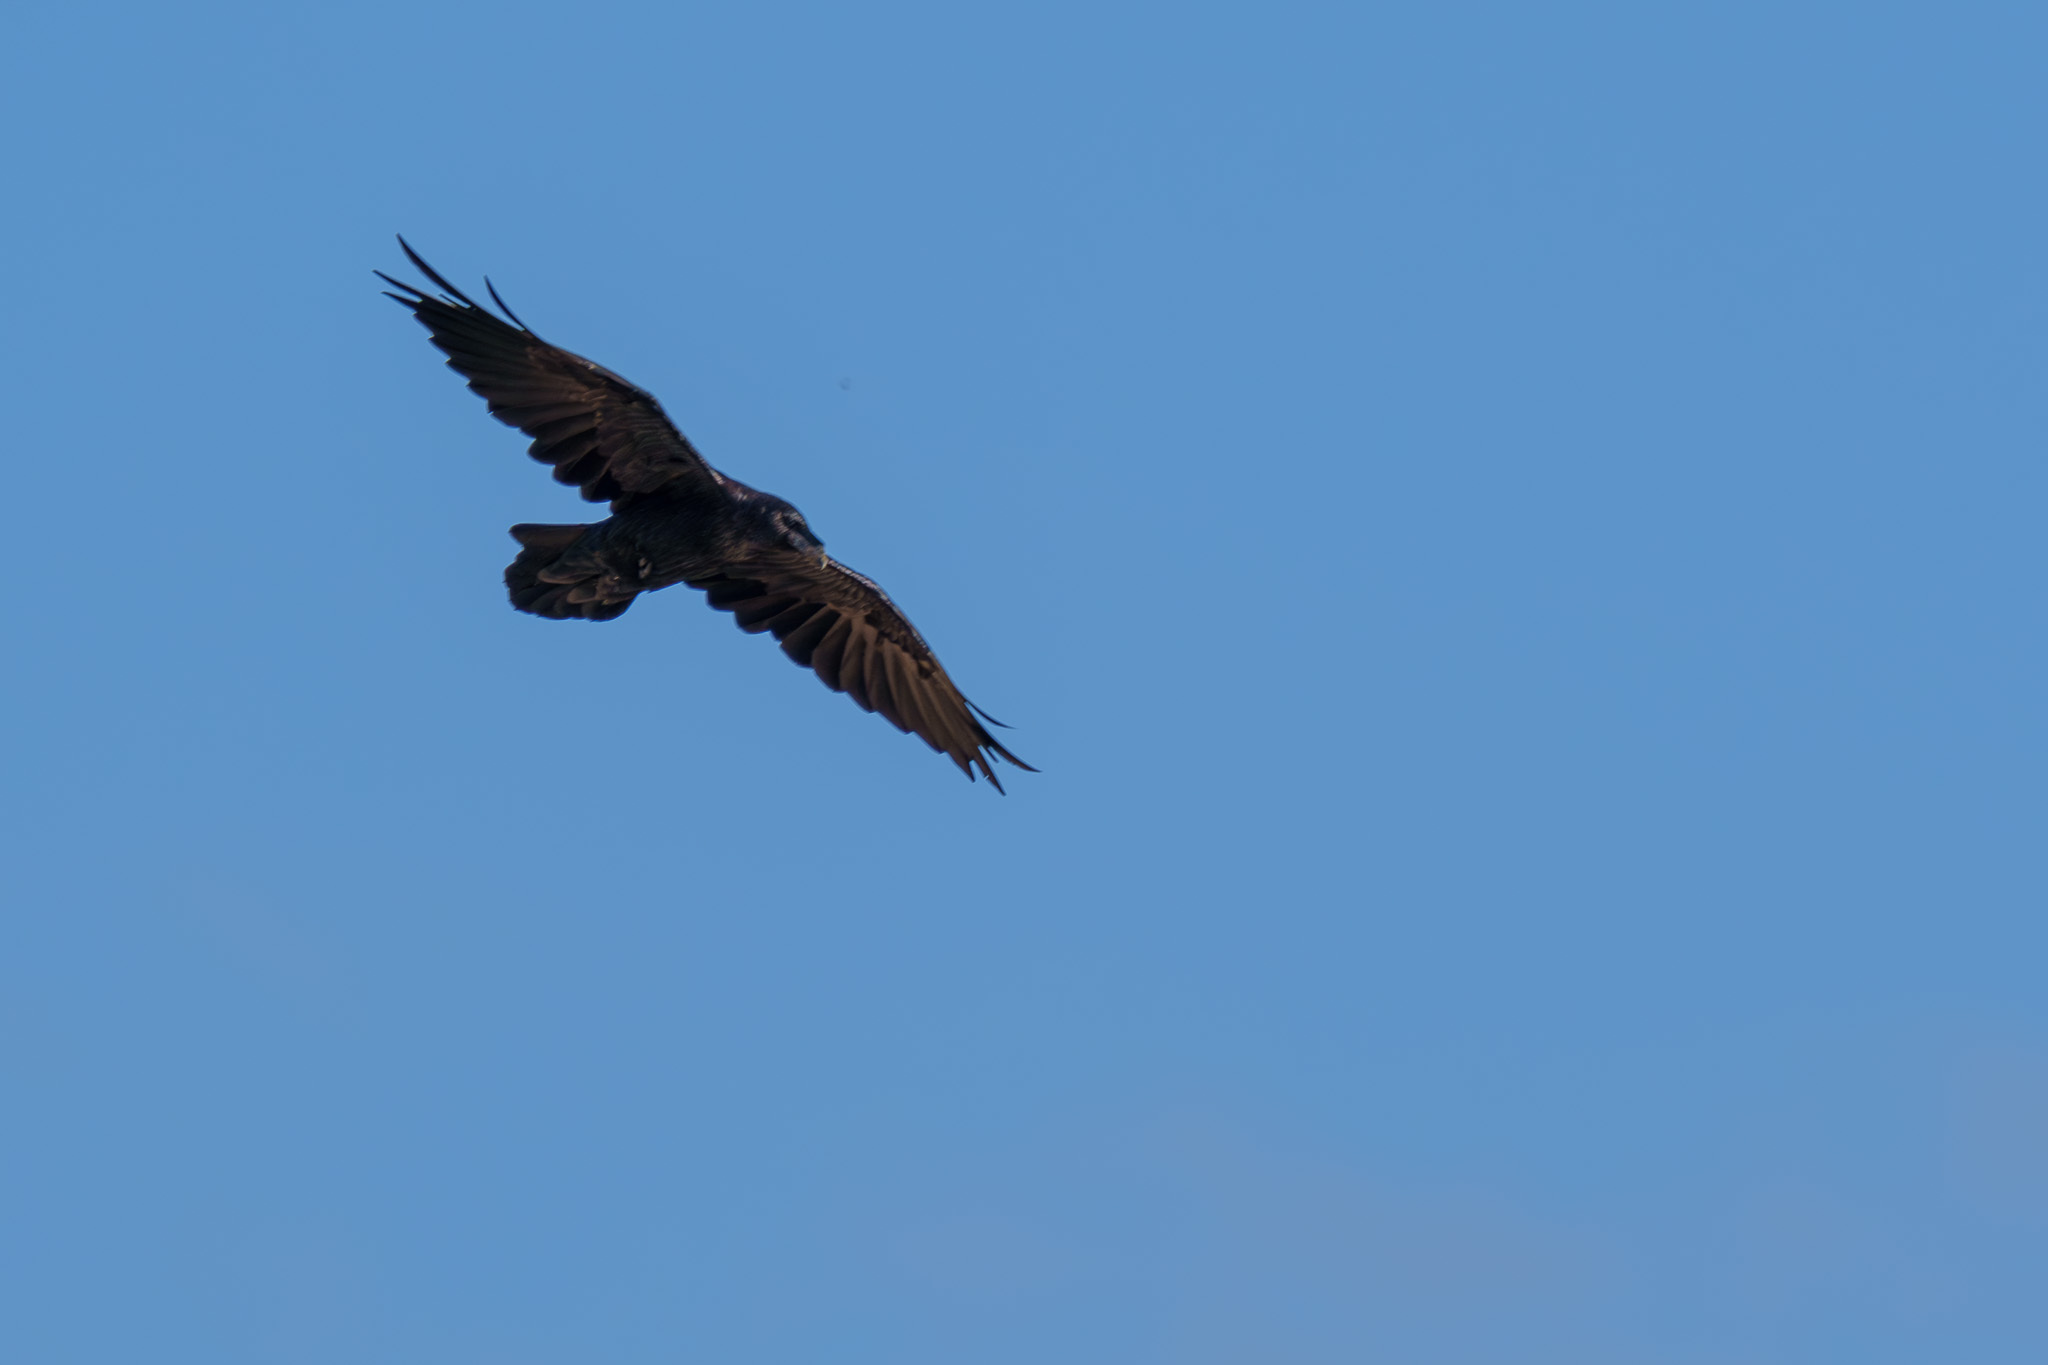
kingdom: Animalia
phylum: Chordata
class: Aves
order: Passeriformes
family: Corvidae
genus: Corvus
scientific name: Corvus corax
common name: Common raven
